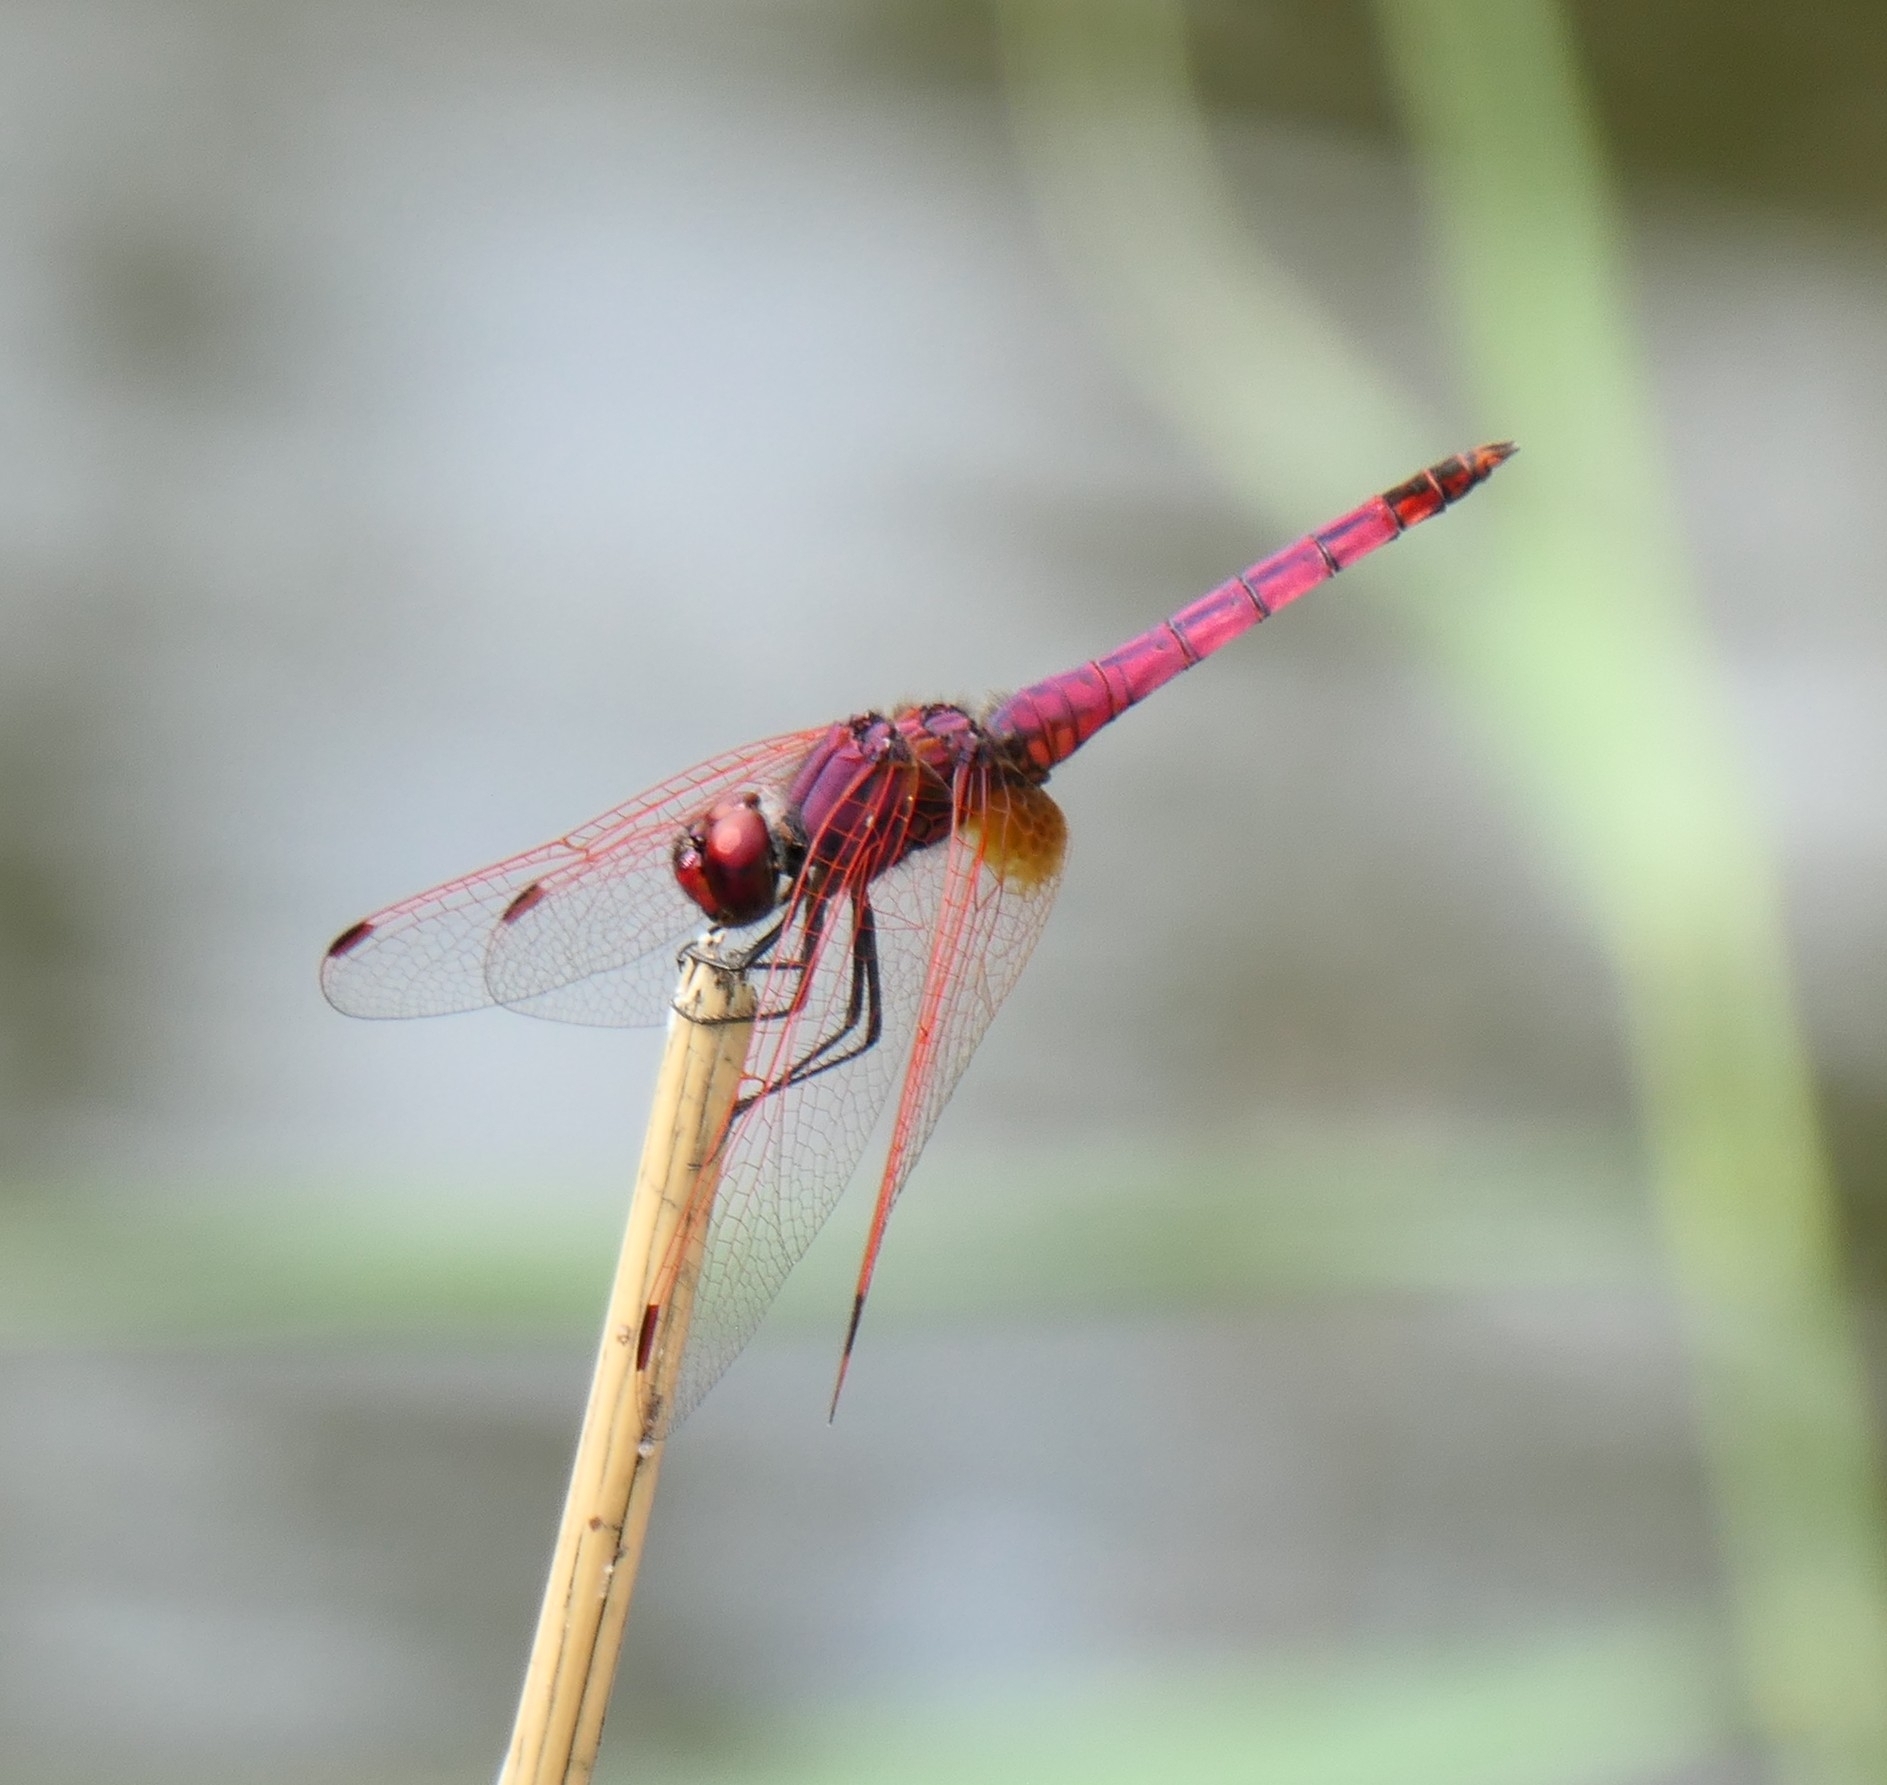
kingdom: Animalia
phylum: Arthropoda
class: Insecta
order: Odonata
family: Libellulidae
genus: Trithemis
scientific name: Trithemis annulata
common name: Violet dropwing
